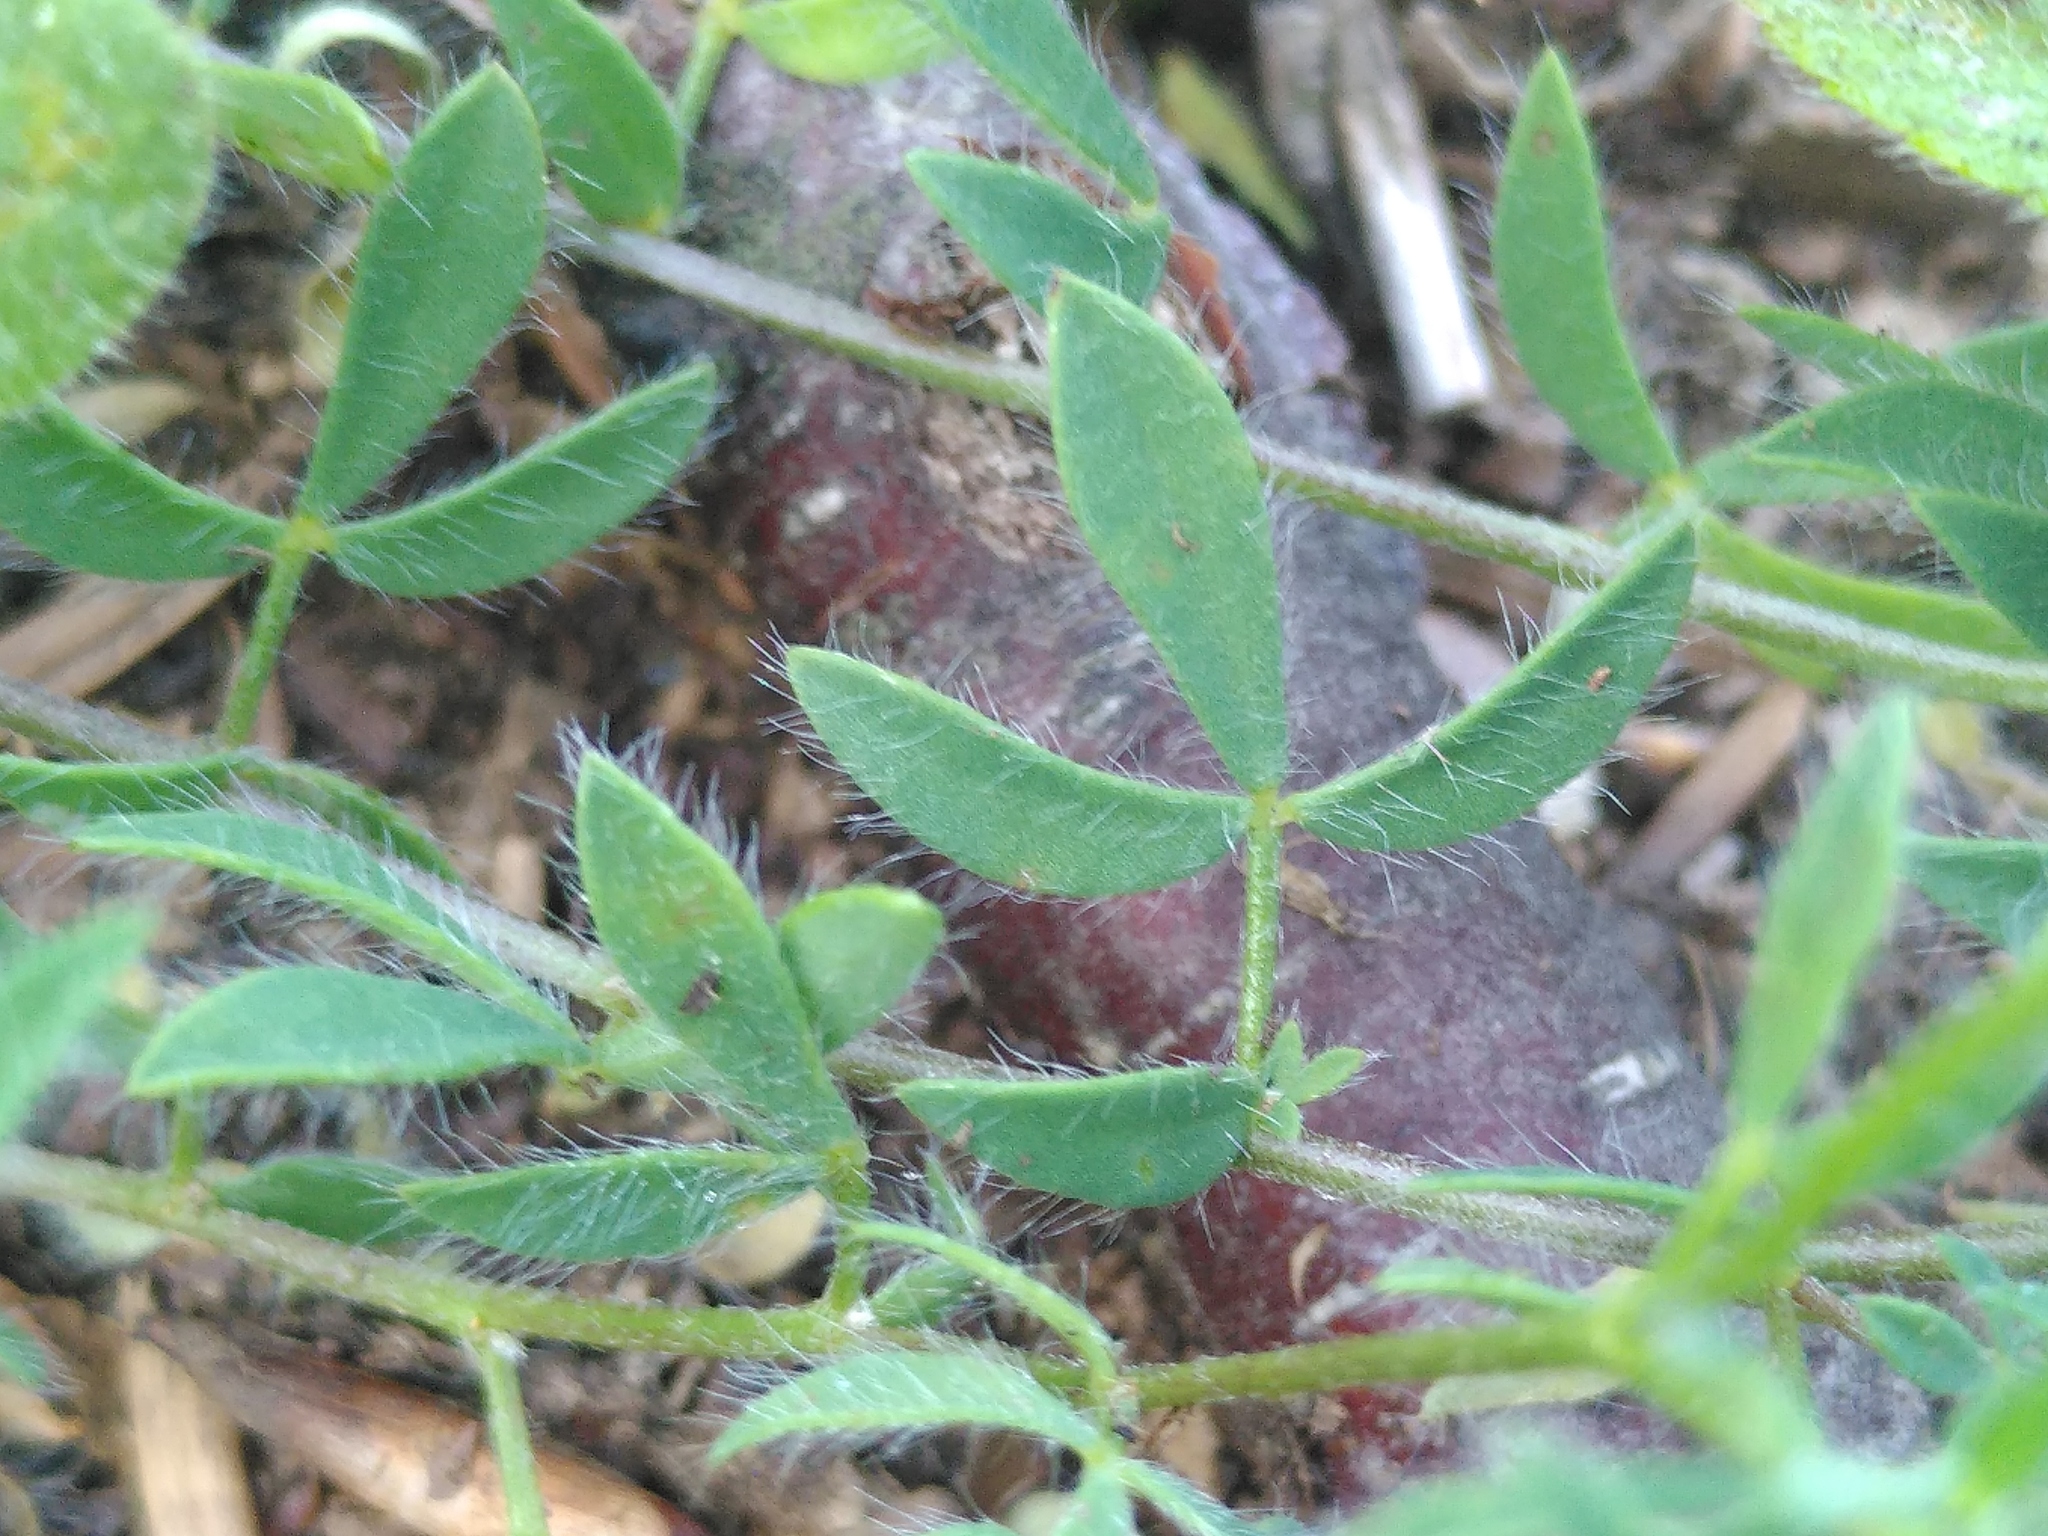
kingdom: Plantae
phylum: Tracheophyta
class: Magnoliopsida
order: Fabales
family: Fabaceae
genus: Lotus
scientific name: Lotus corniculatus
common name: Common bird's-foot-trefoil
